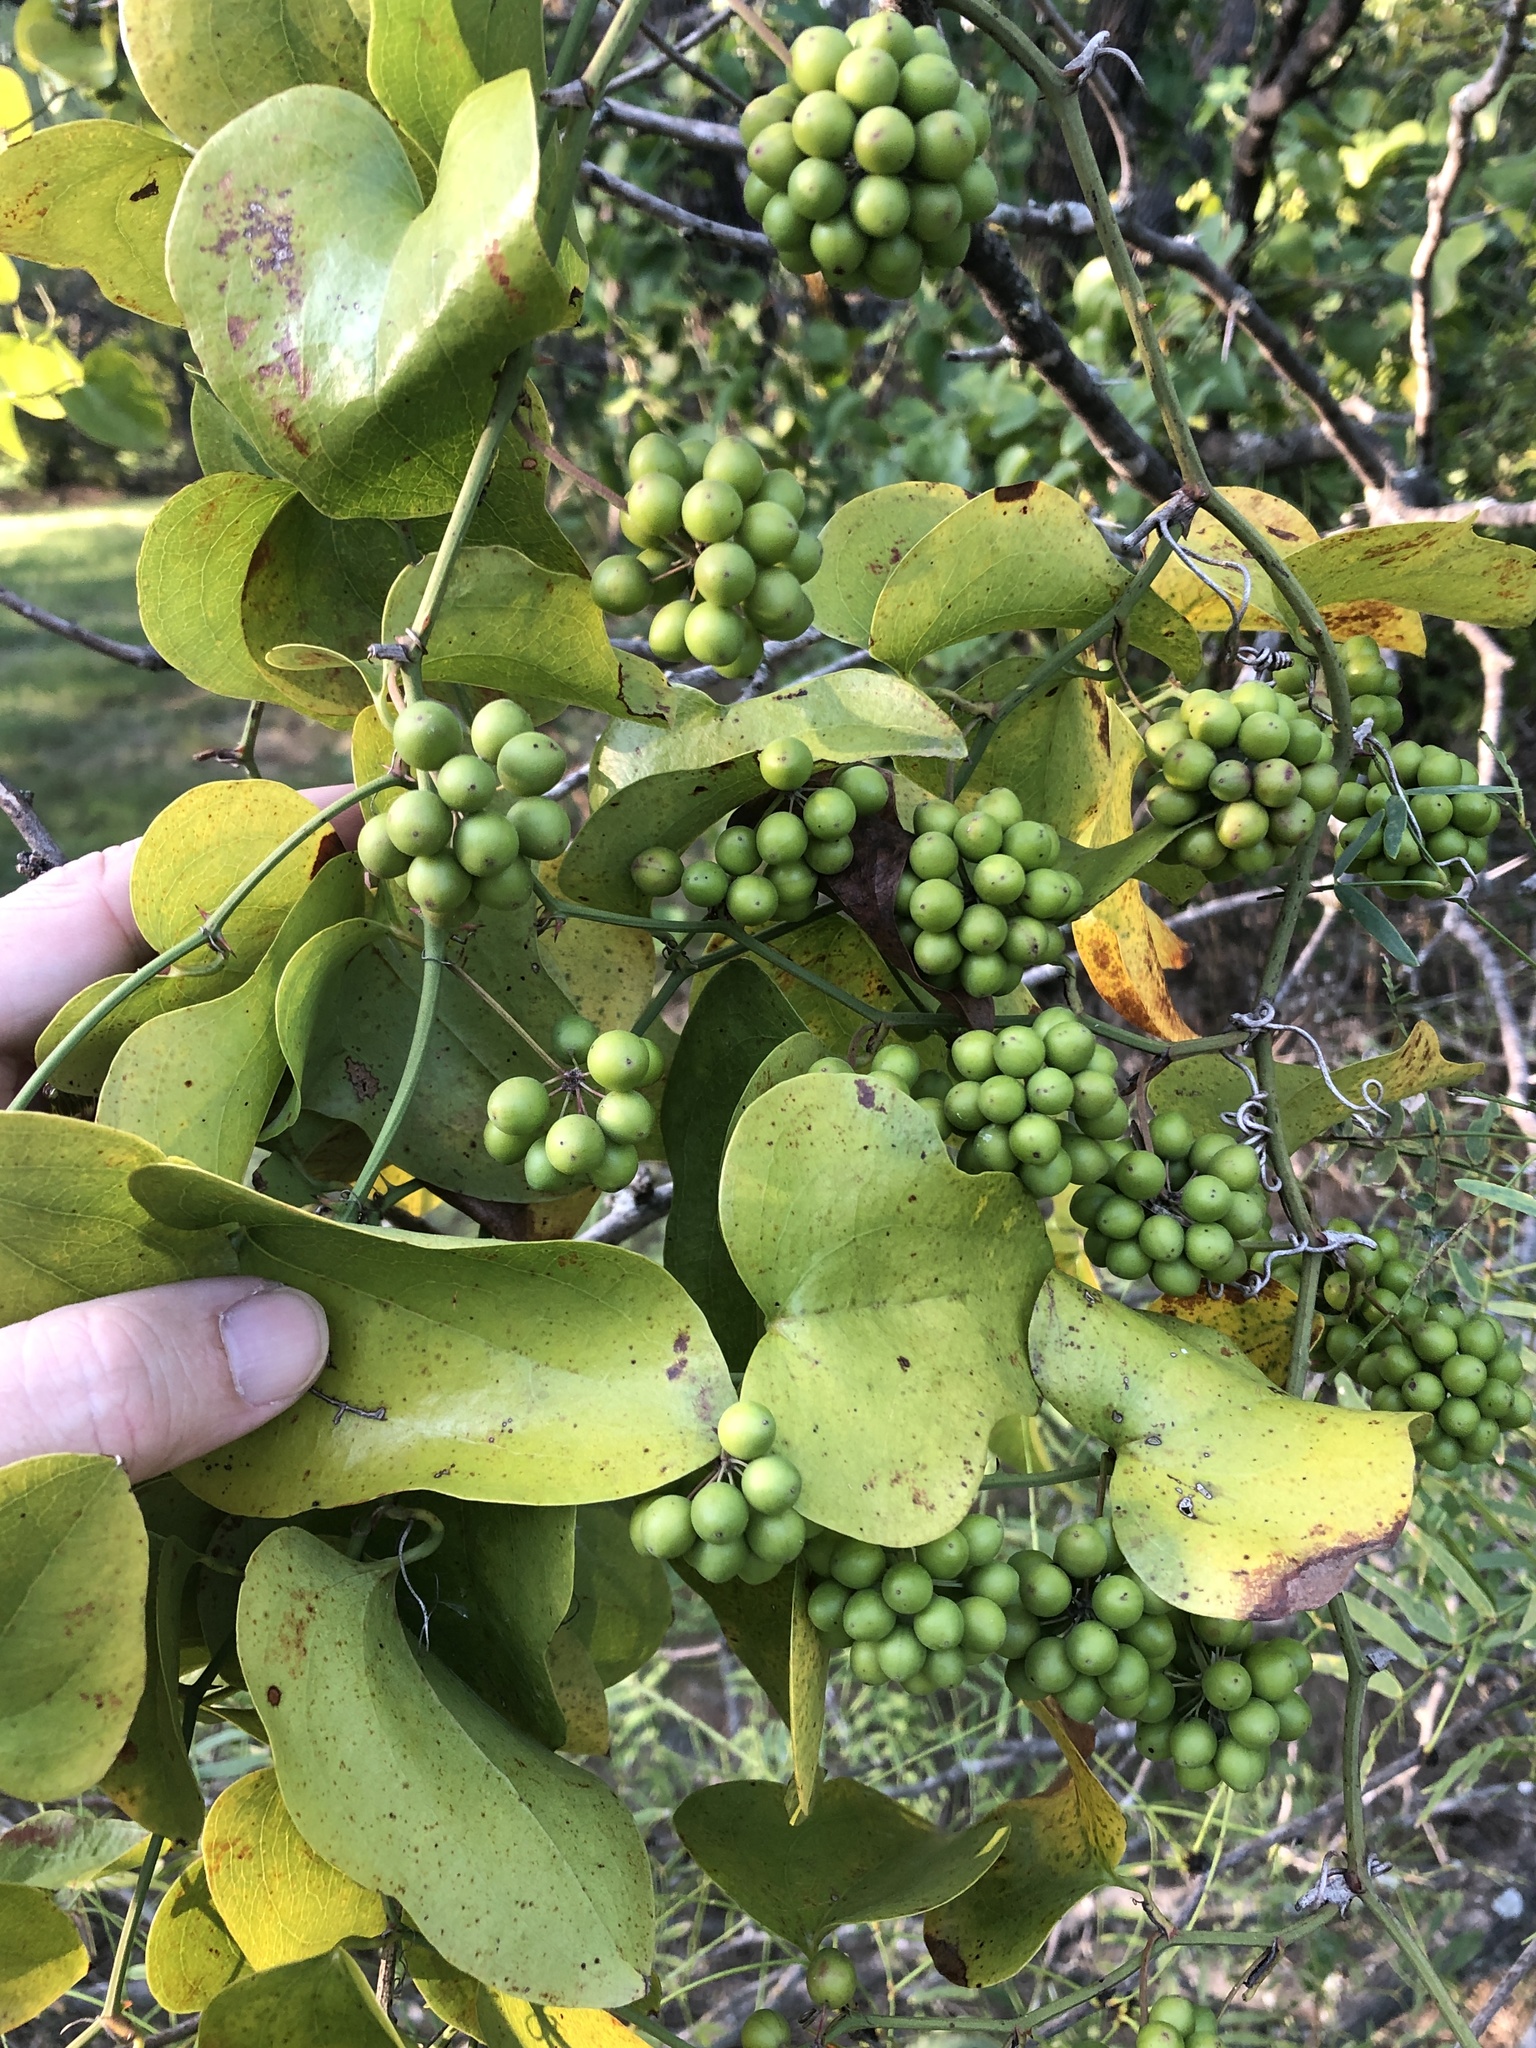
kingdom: Plantae
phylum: Tracheophyta
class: Liliopsida
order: Liliales
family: Smilacaceae
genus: Smilax
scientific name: Smilax bona-nox
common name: Catbrier
